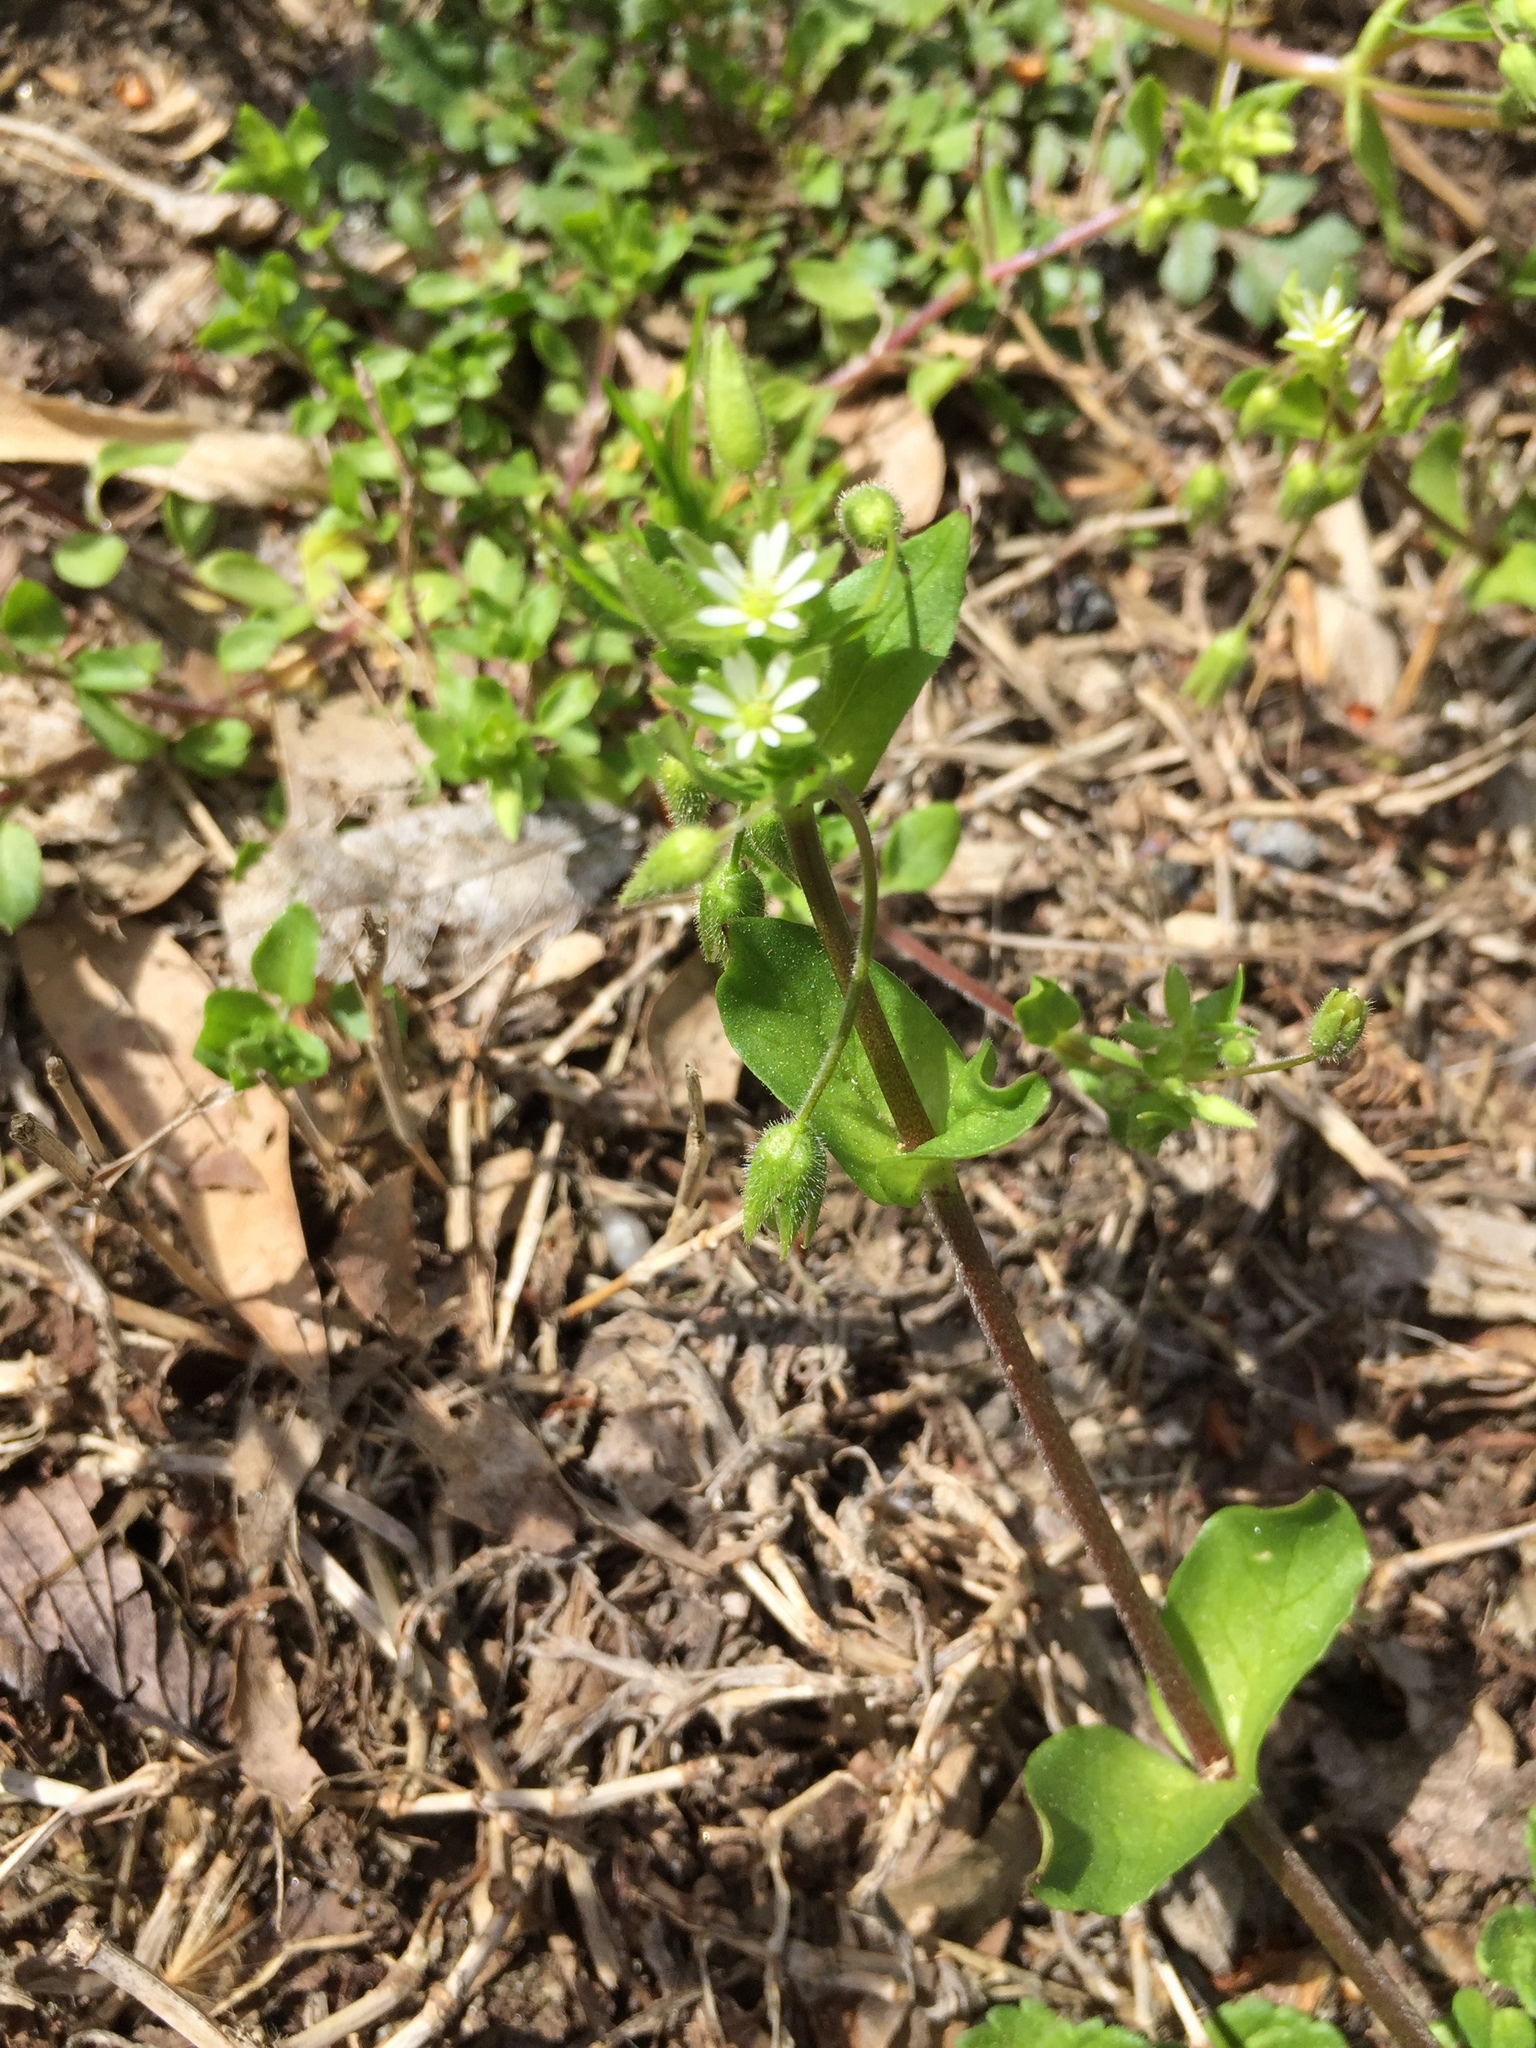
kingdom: Plantae
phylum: Tracheophyta
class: Magnoliopsida
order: Caryophyllales
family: Caryophyllaceae
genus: Stellaria
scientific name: Stellaria media
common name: Common chickweed
